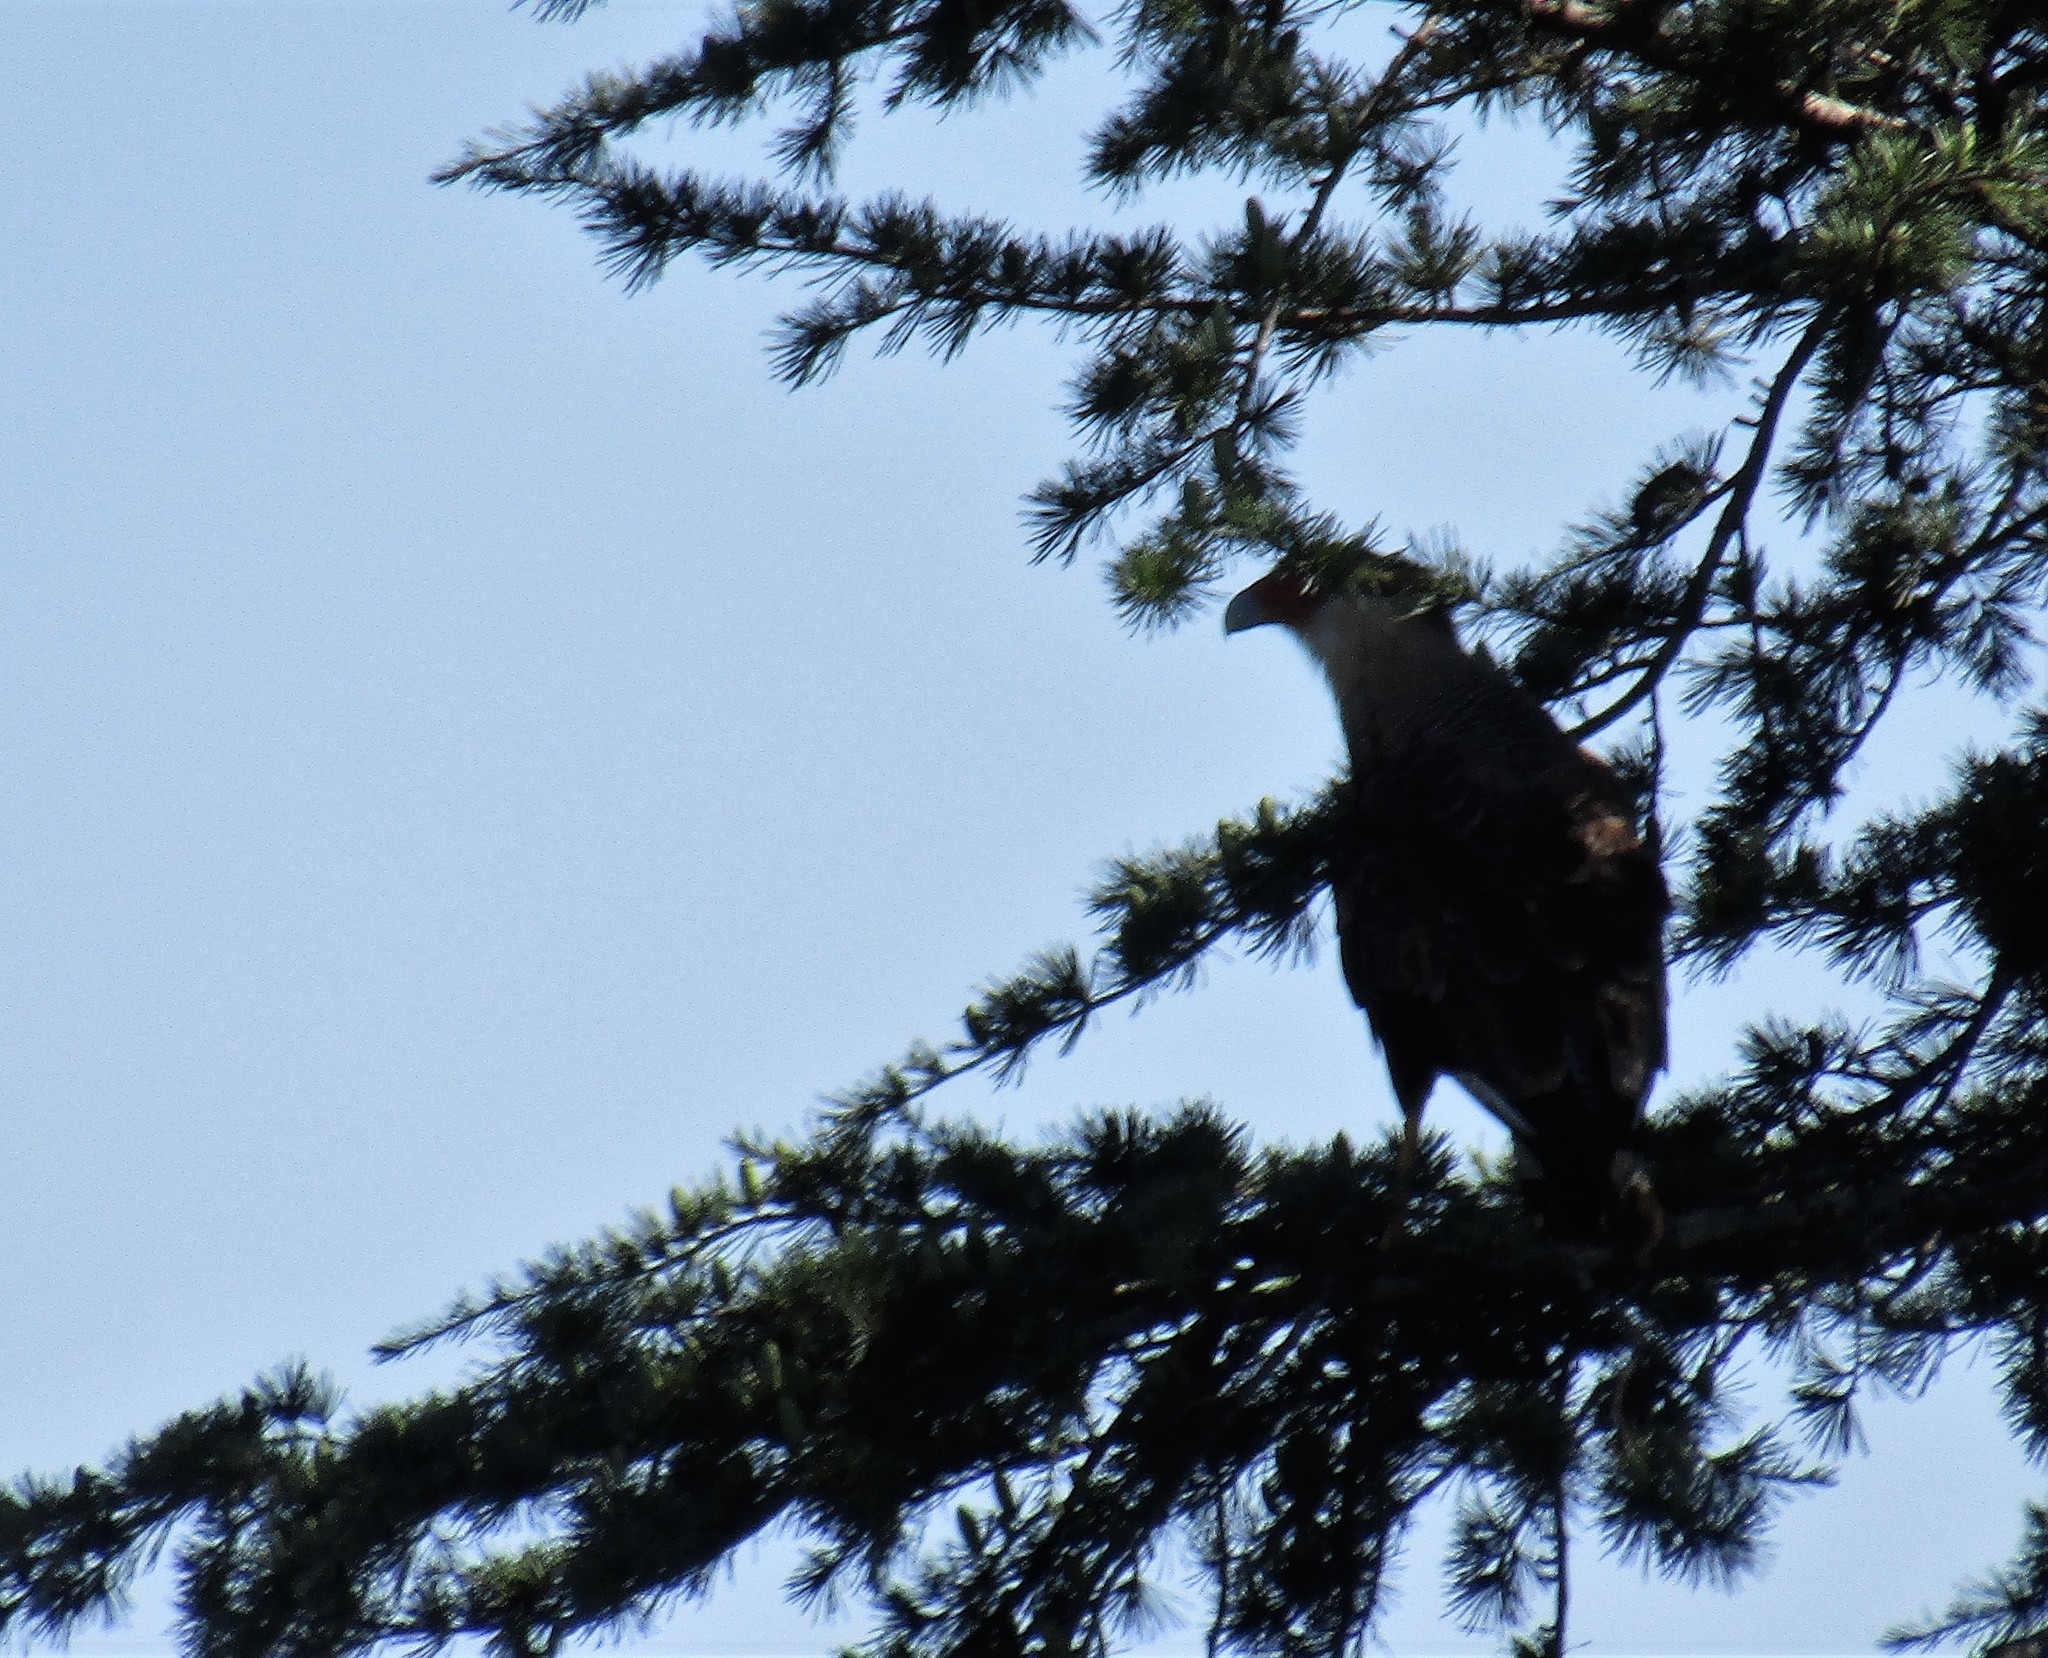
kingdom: Animalia
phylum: Chordata
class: Aves
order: Falconiformes
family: Falconidae
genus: Caracara
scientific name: Caracara plancus
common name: Southern caracara
